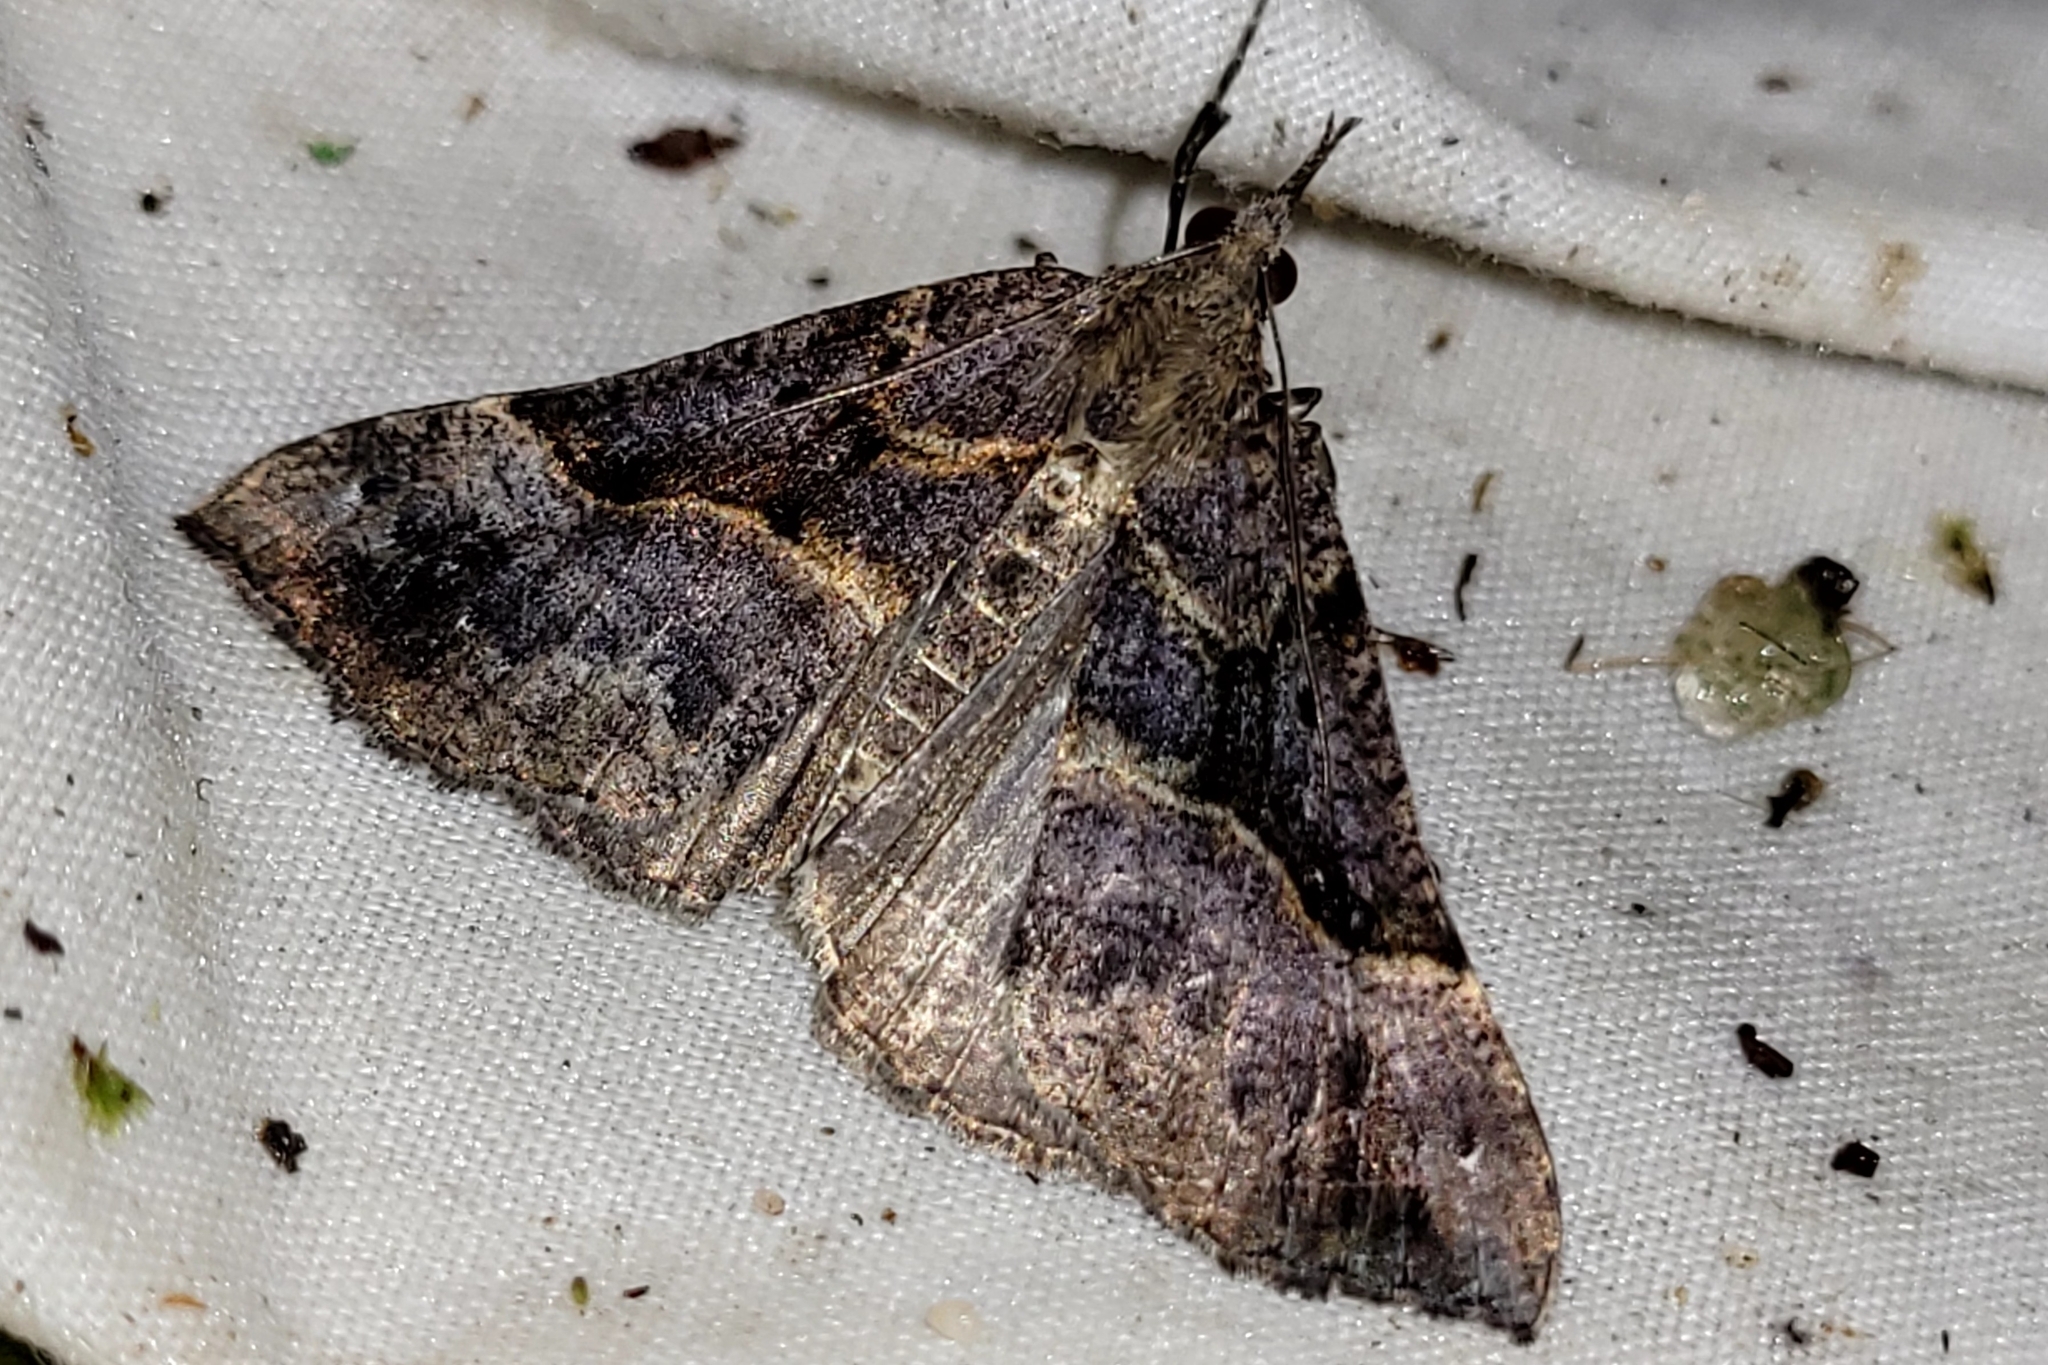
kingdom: Animalia
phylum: Arthropoda
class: Insecta
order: Lepidoptera
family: Erebidae
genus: Hypena
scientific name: Hypena edictalis
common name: Large snout
